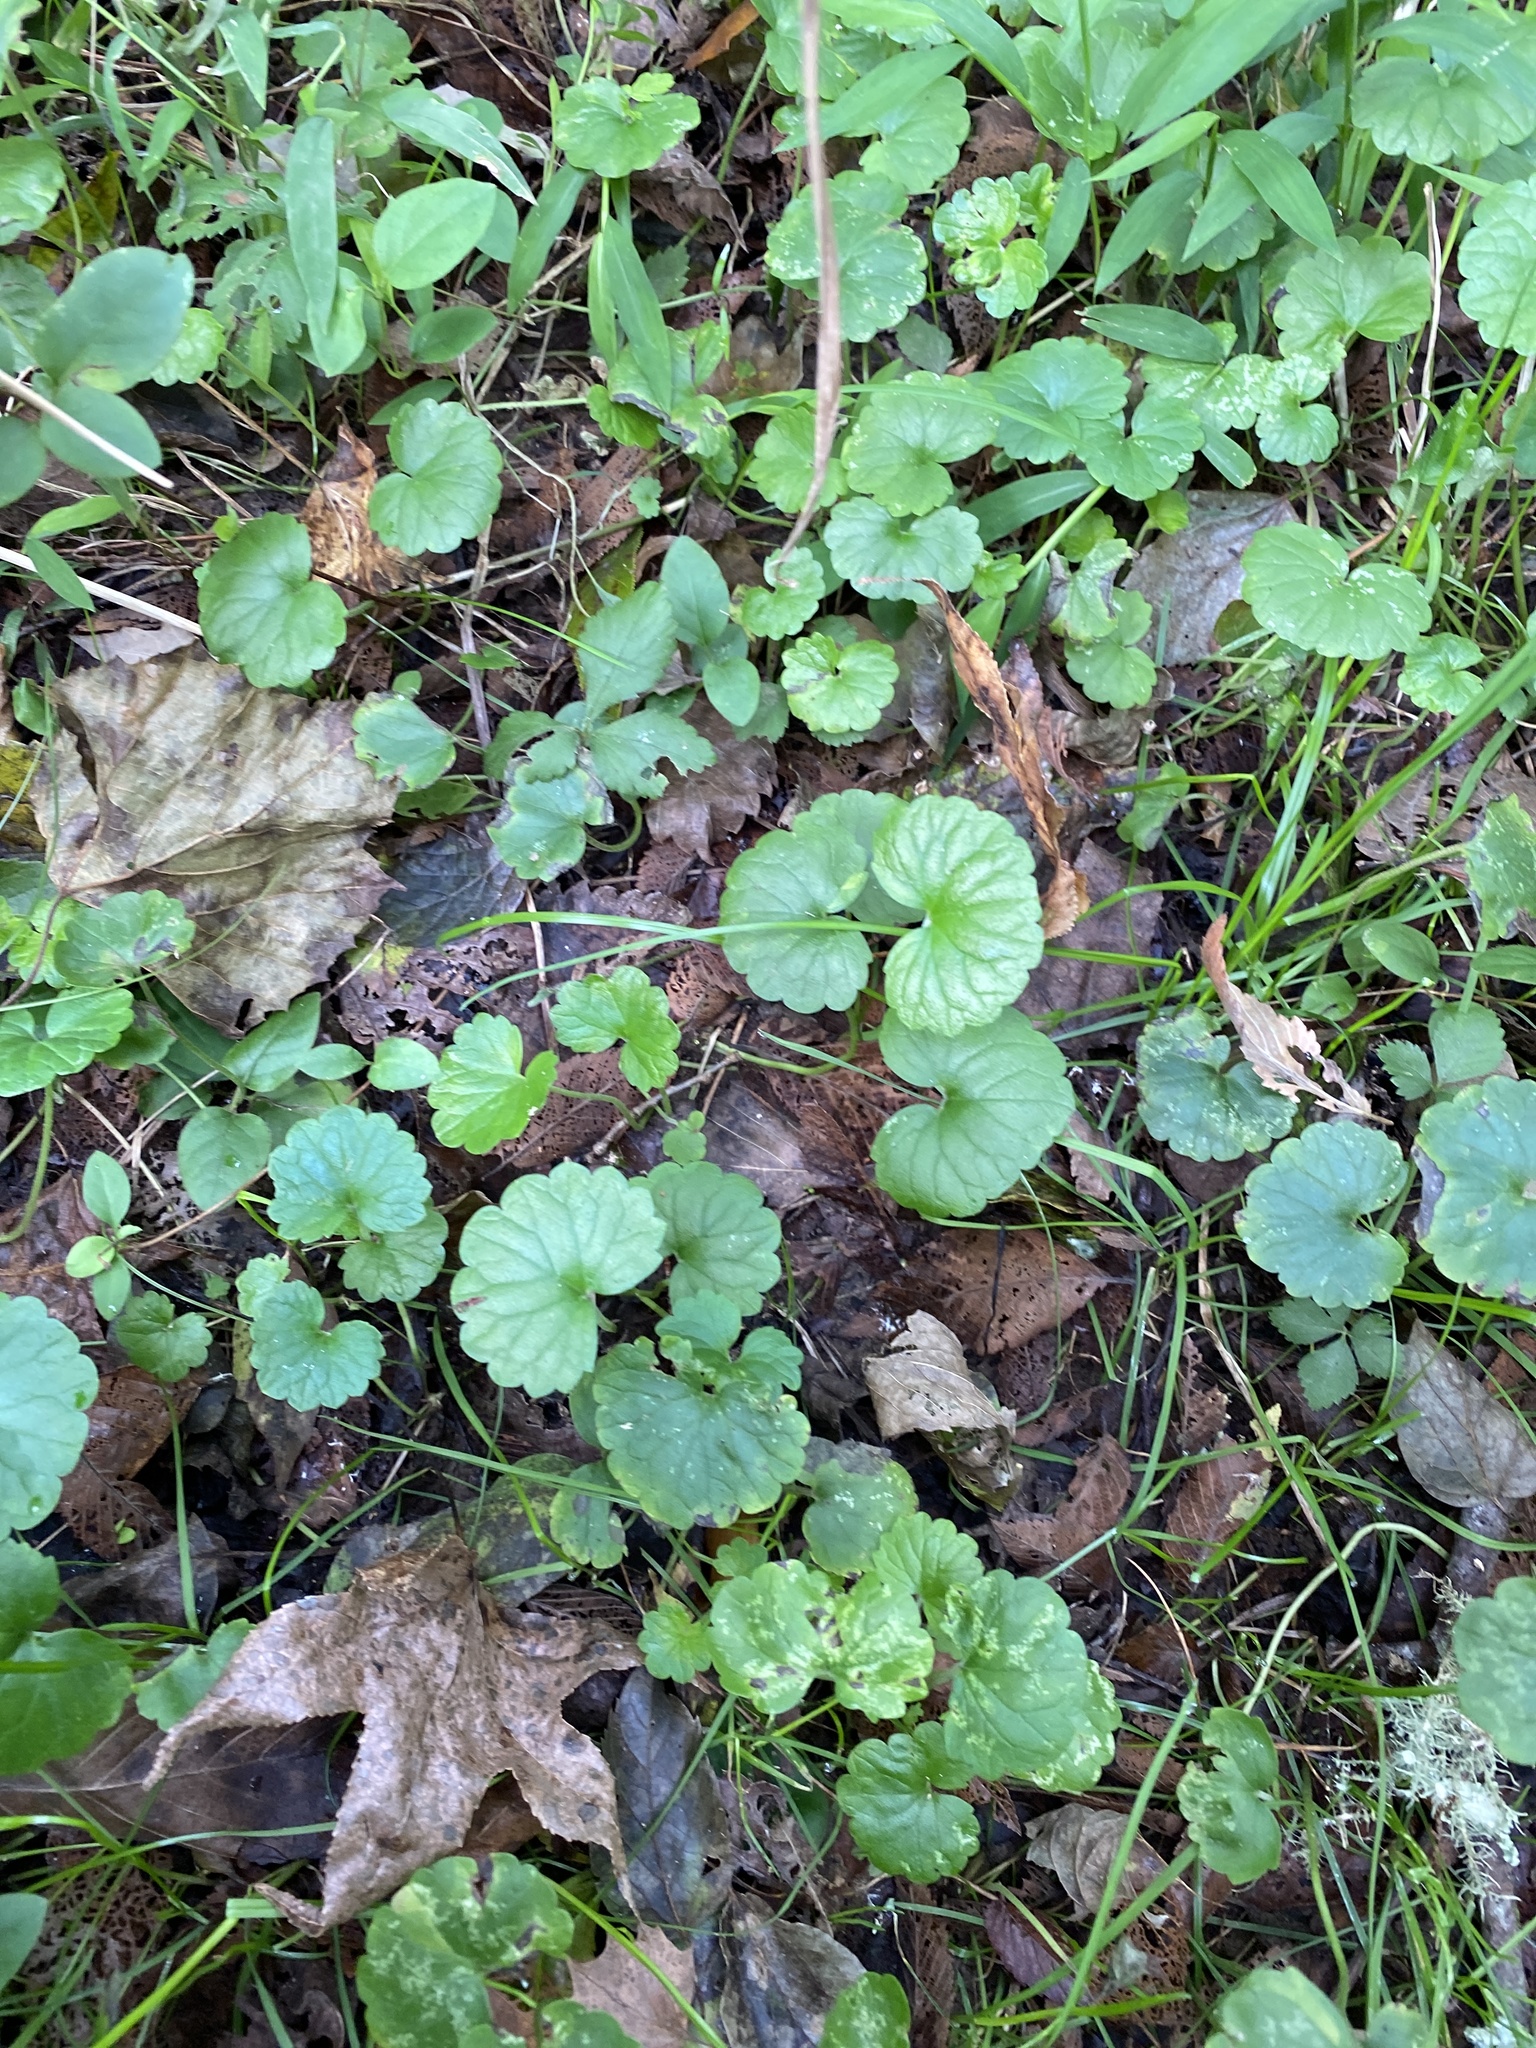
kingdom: Plantae
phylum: Tracheophyta
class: Magnoliopsida
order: Lamiales
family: Lamiaceae
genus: Glechoma
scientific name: Glechoma hederacea
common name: Ground ivy
